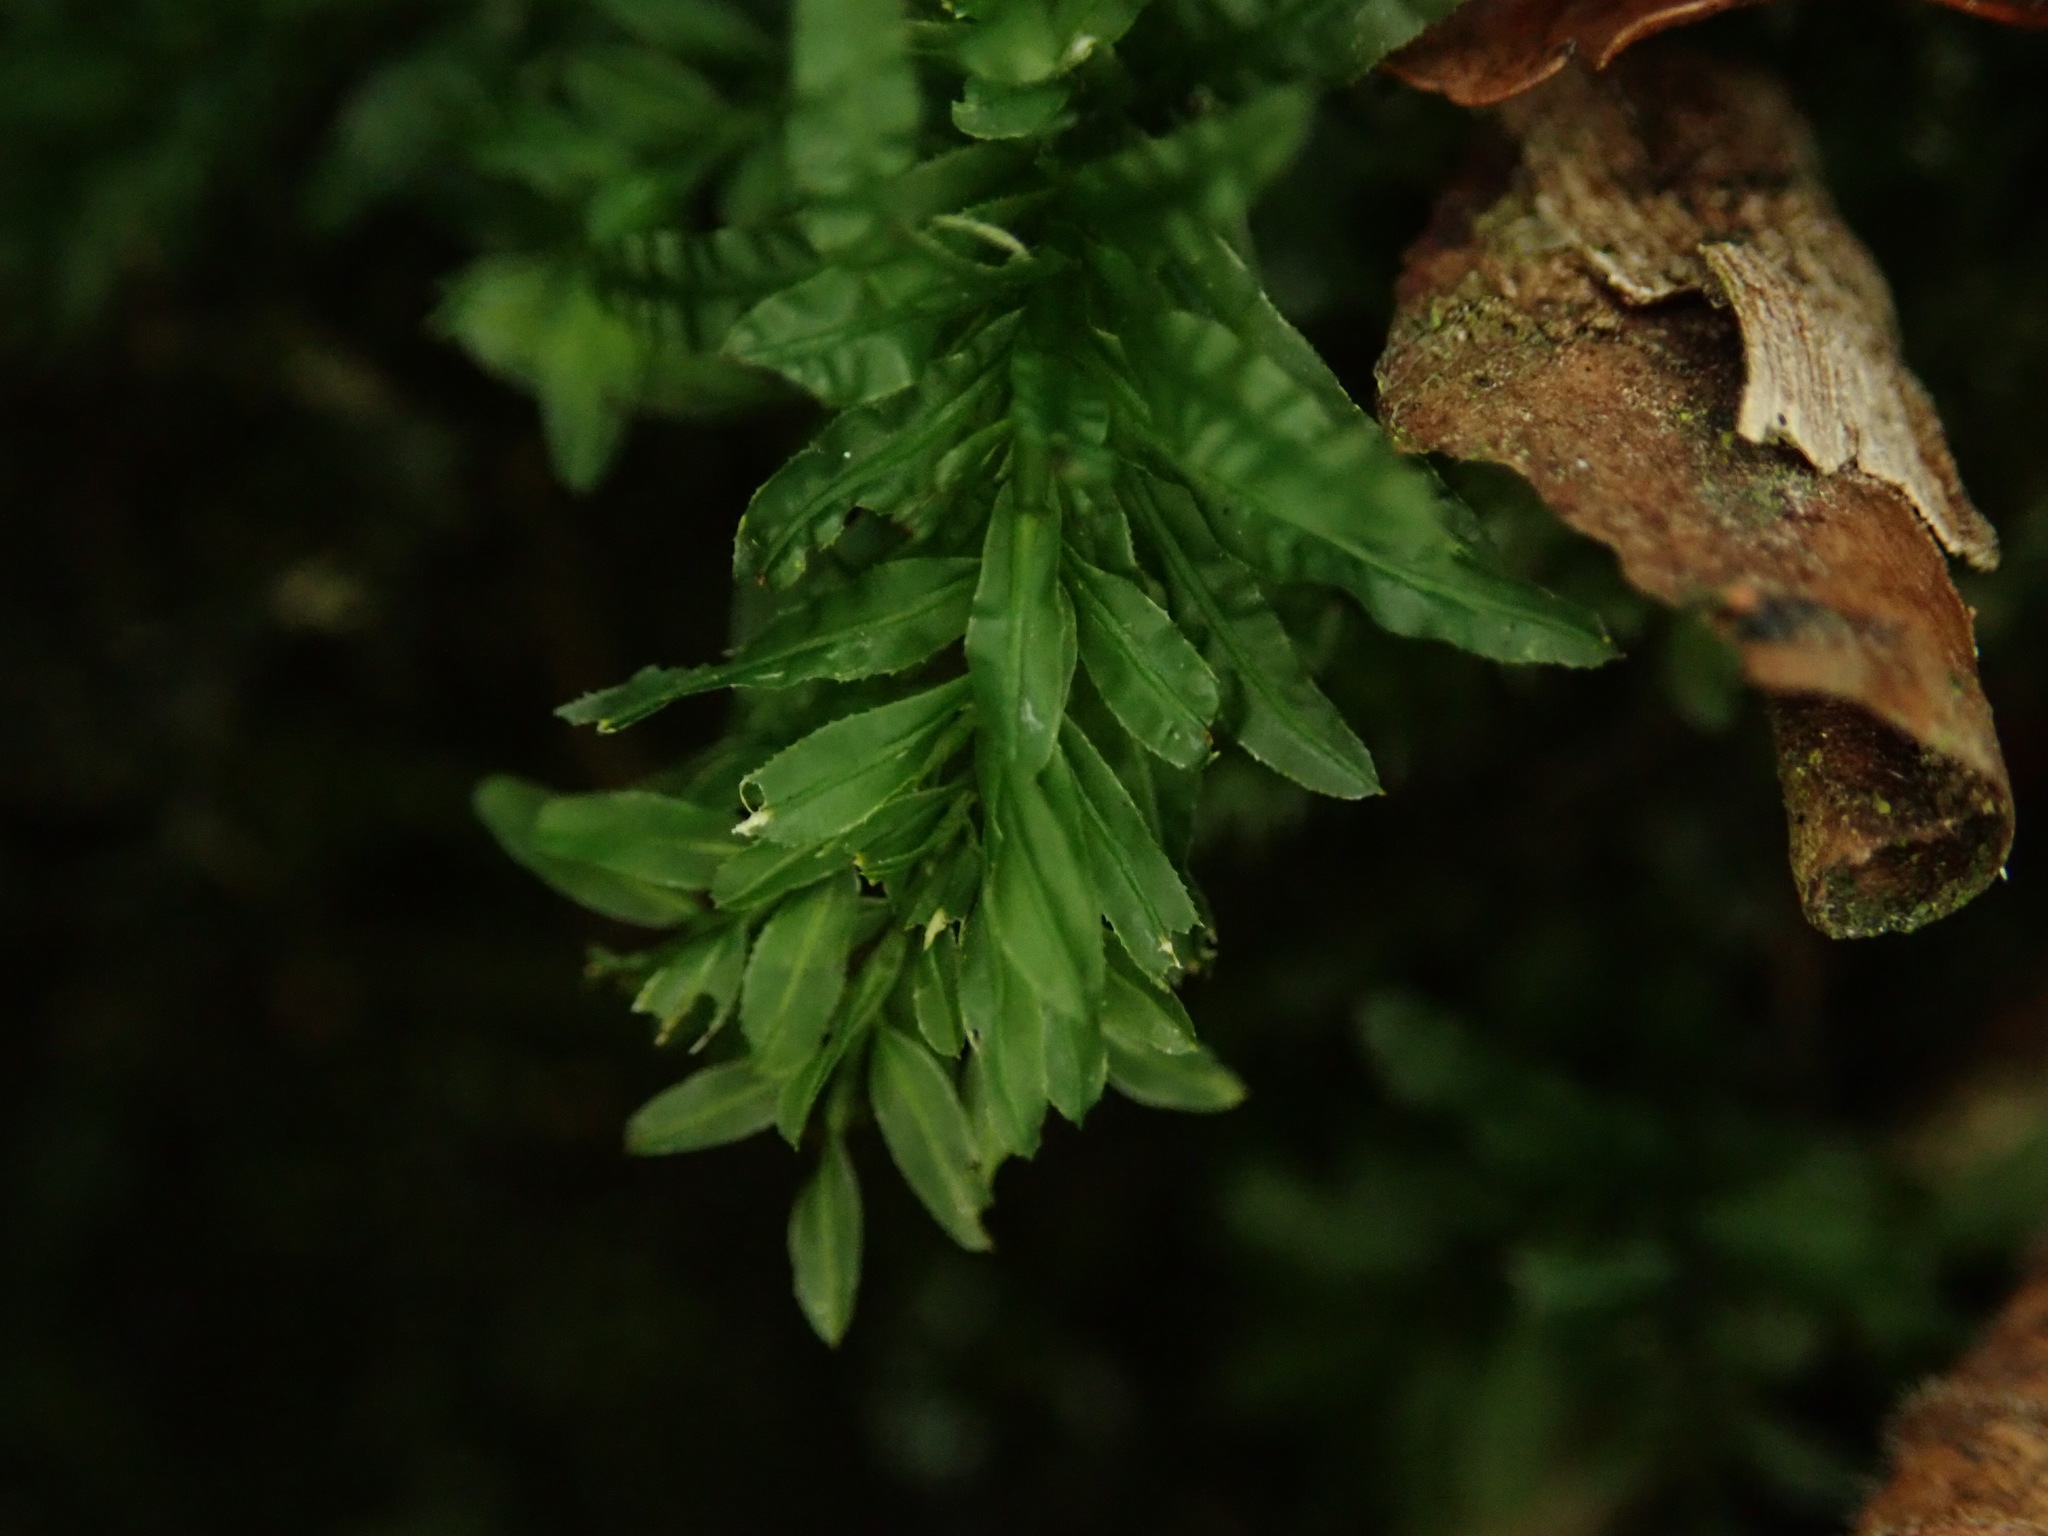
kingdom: Plantae
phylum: Bryophyta
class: Bryopsida
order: Bryales
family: Mniaceae
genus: Plagiomnium
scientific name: Plagiomnium undulatum
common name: Hart's-tongue thyme-moss
